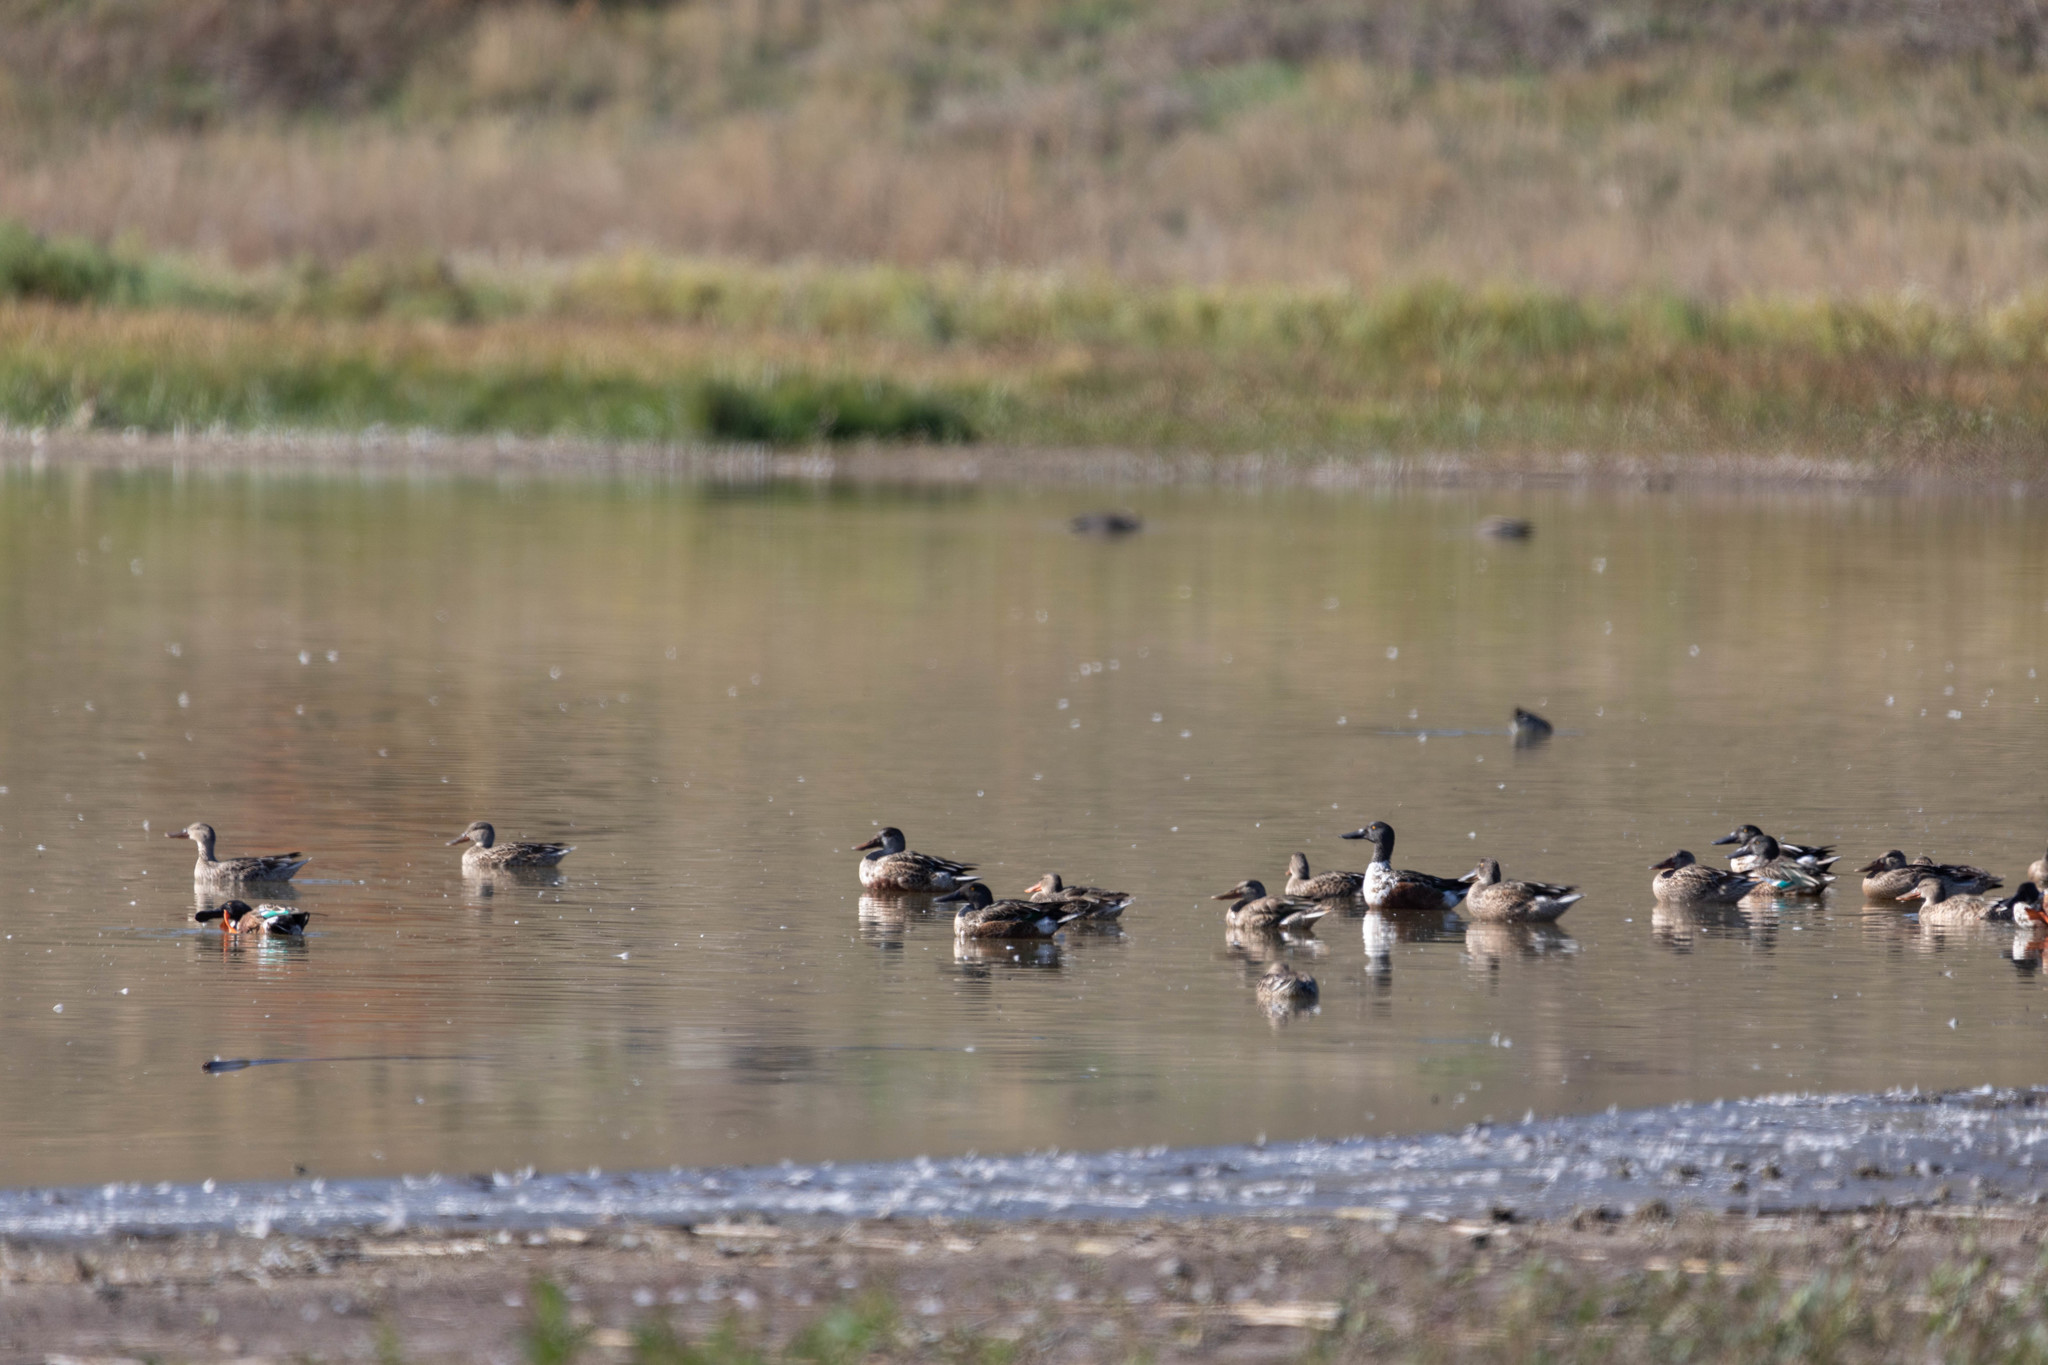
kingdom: Animalia
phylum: Chordata
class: Aves
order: Anseriformes
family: Anatidae
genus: Spatula
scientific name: Spatula clypeata
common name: Northern shoveler
